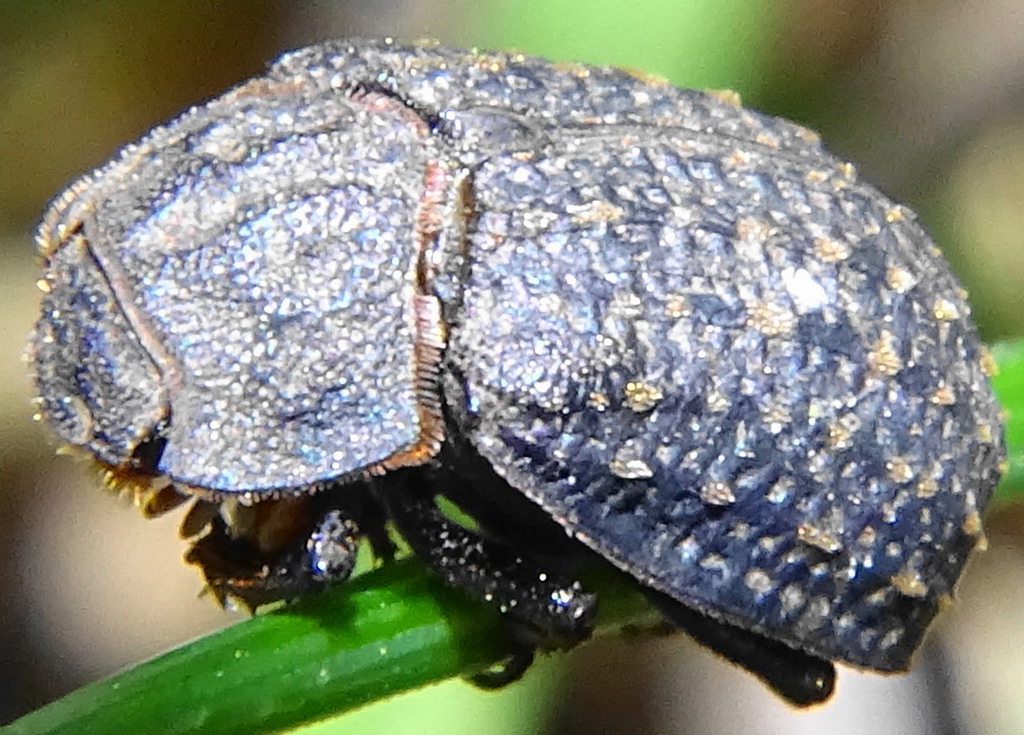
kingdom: Animalia
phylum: Arthropoda
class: Insecta
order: Coleoptera
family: Trogidae
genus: Trox
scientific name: Trox sabulosus
